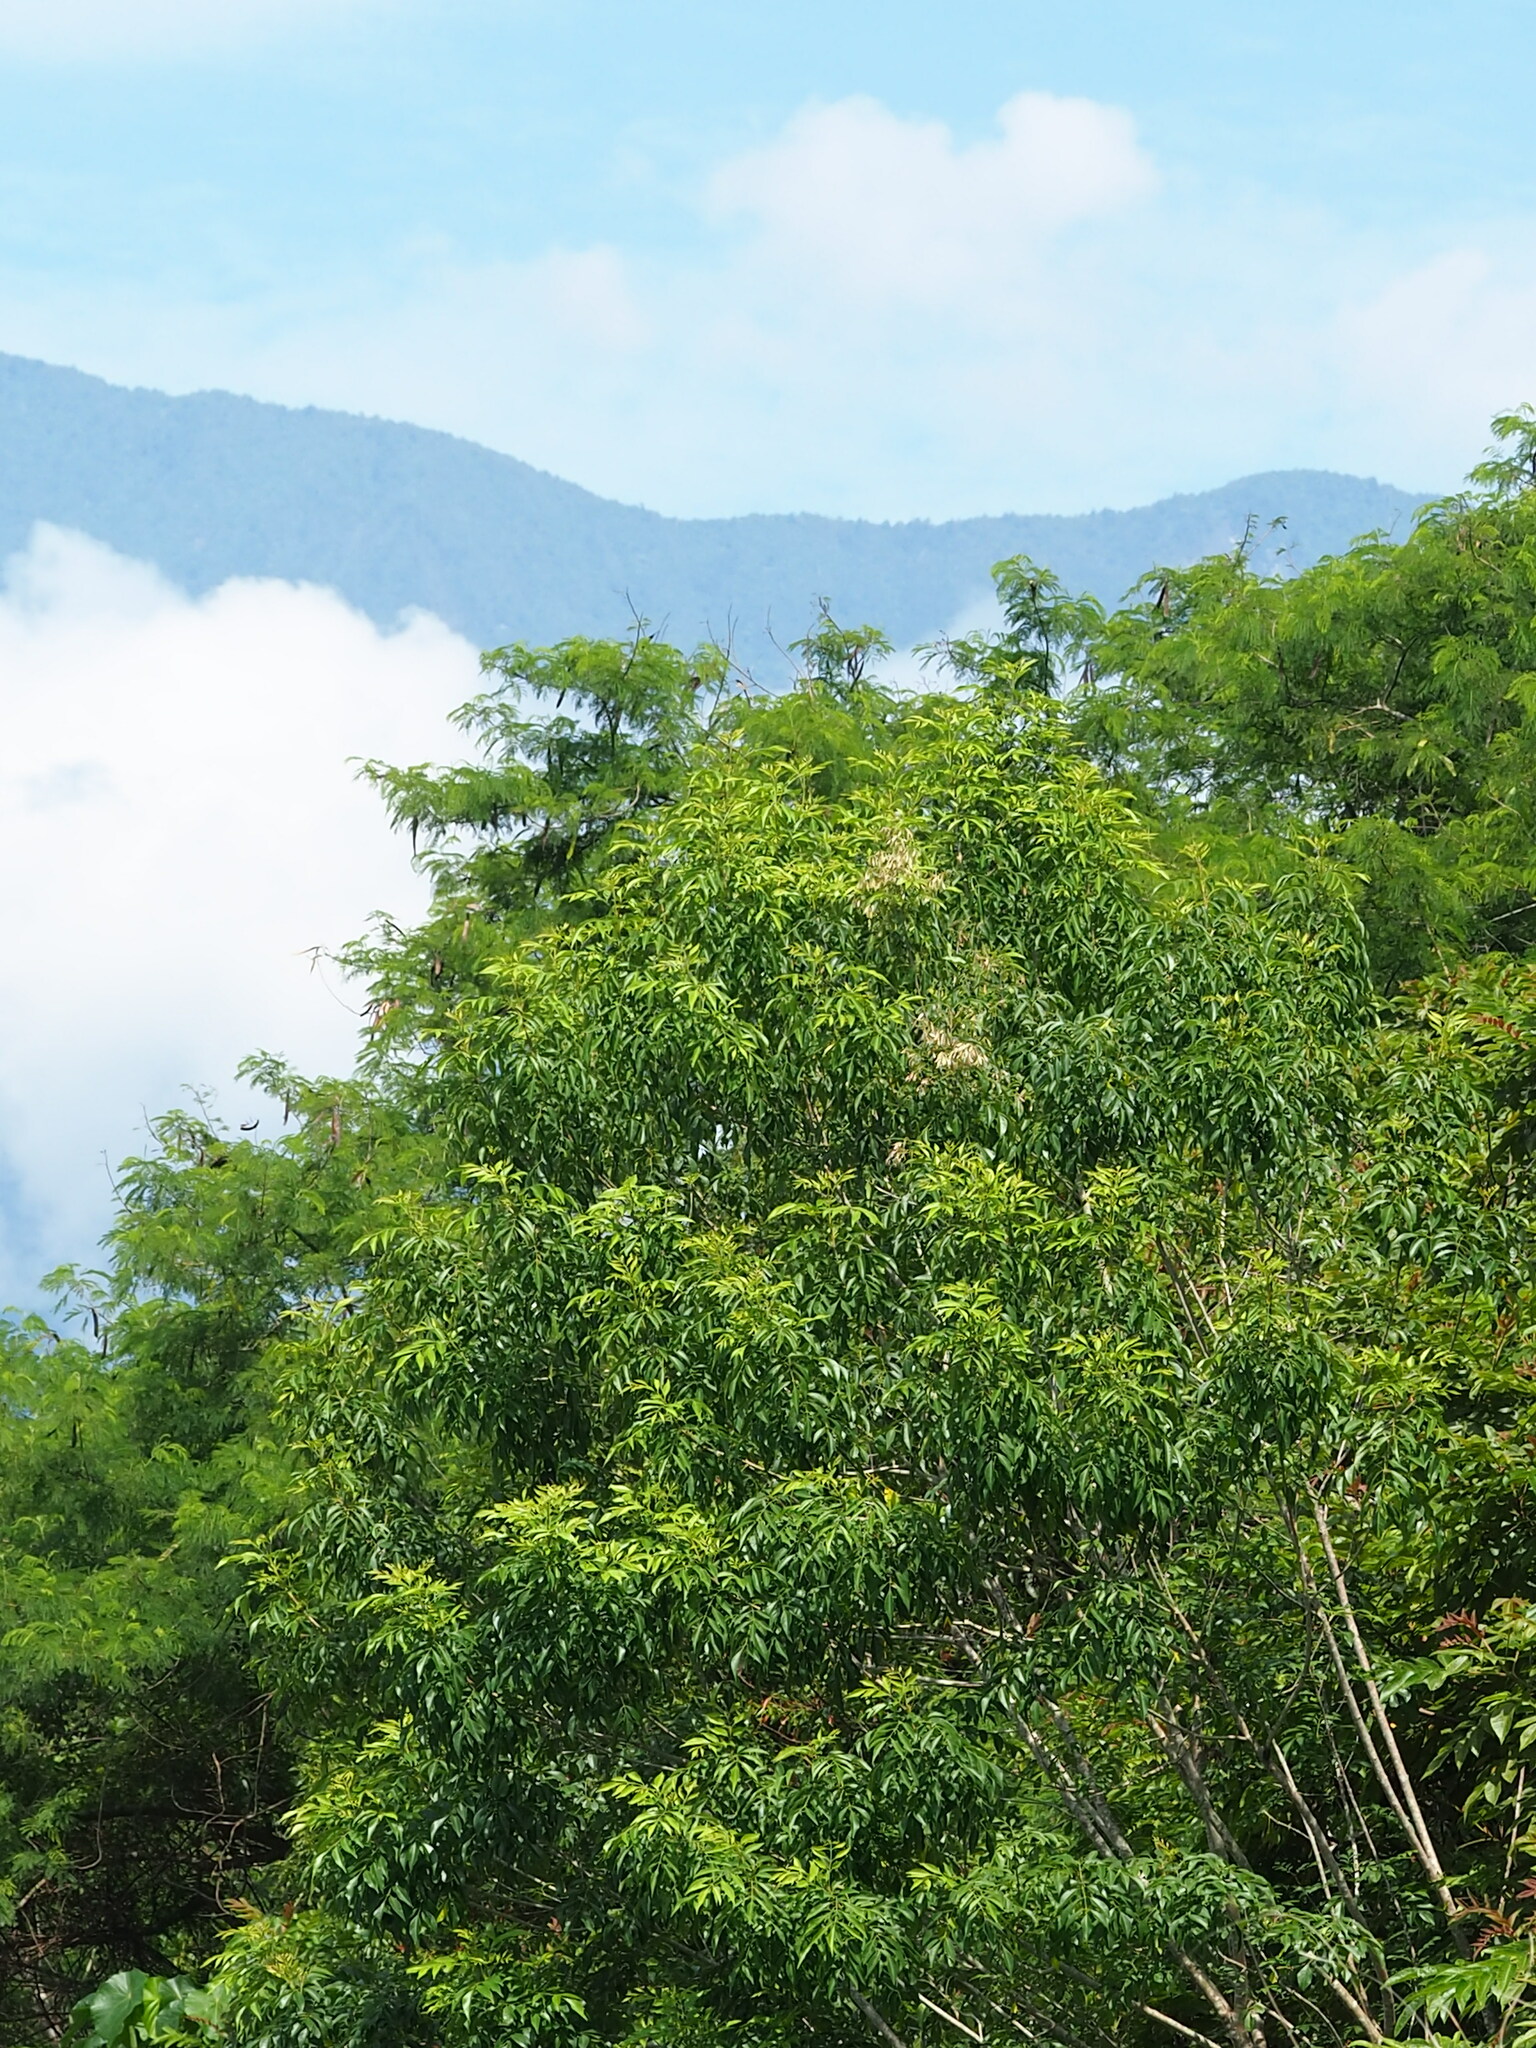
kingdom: Plantae
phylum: Tracheophyta
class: Magnoliopsida
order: Lamiales
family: Oleaceae
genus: Fraxinus
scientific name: Fraxinus griffithii
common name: Himalayan ash
